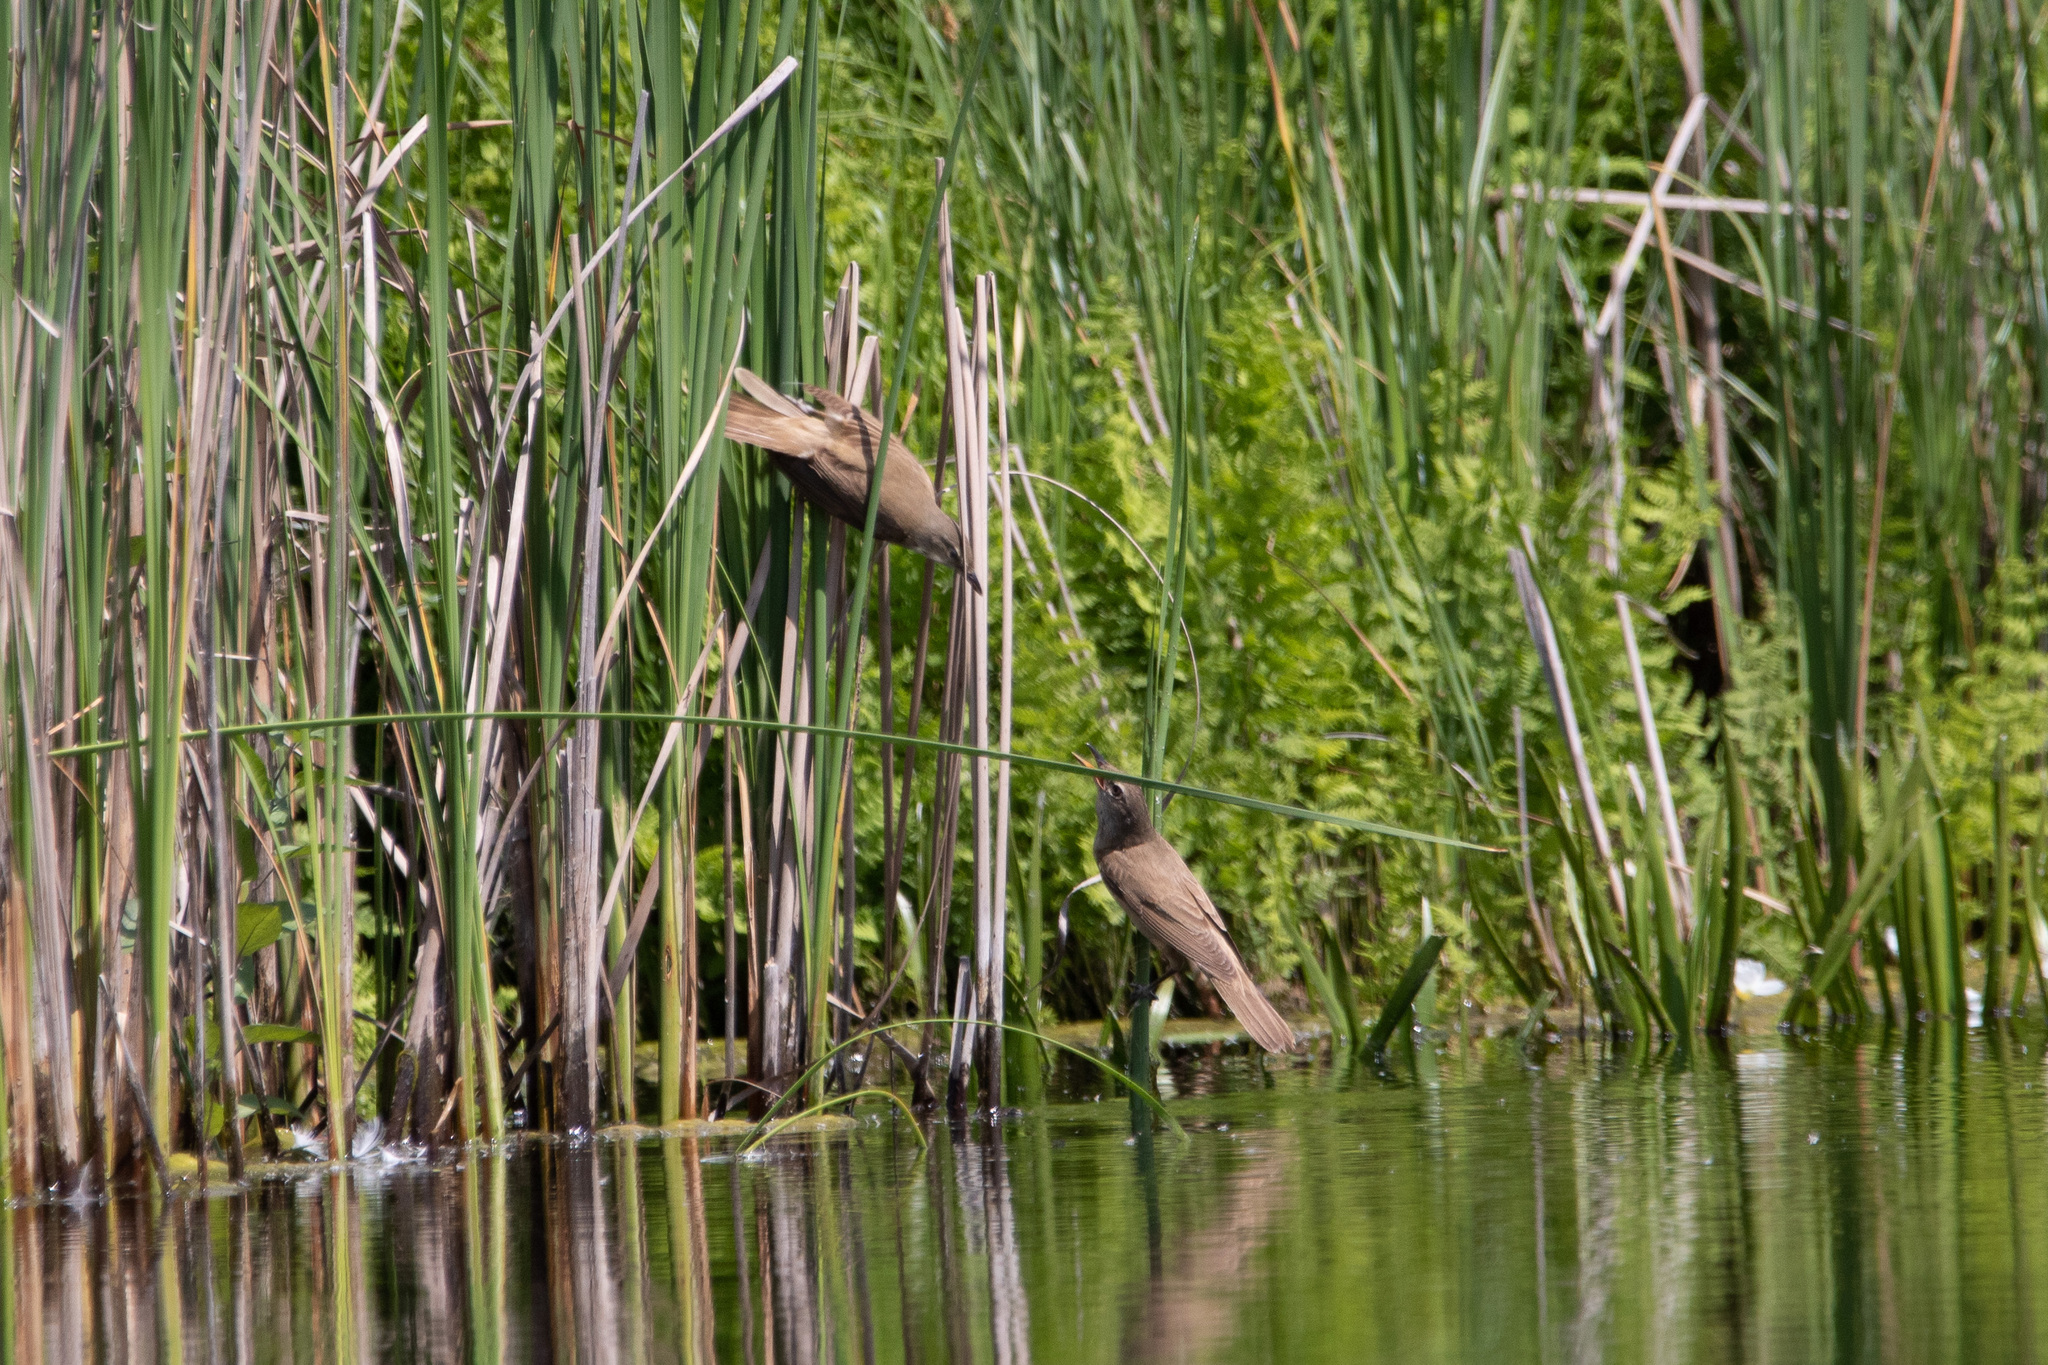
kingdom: Animalia
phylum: Chordata
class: Aves
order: Passeriformes
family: Acrocephalidae
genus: Acrocephalus
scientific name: Acrocephalus arundinaceus
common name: Great reed warbler
